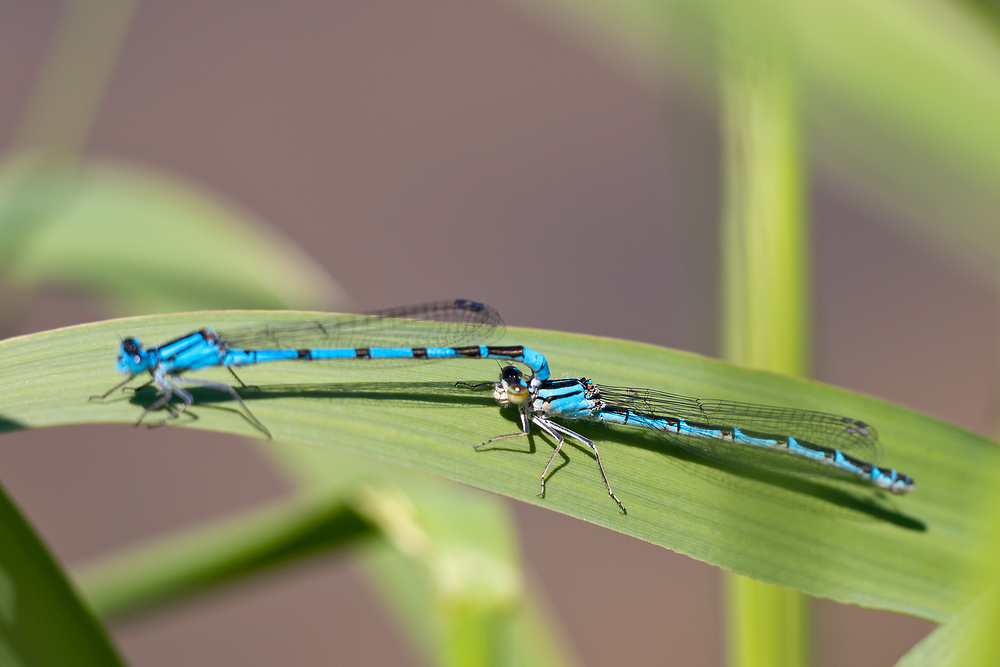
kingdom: Animalia
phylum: Arthropoda
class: Insecta
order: Odonata
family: Coenagrionidae
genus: Enallagma
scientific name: Enallagma cyathigerum
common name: Common blue damselfly
